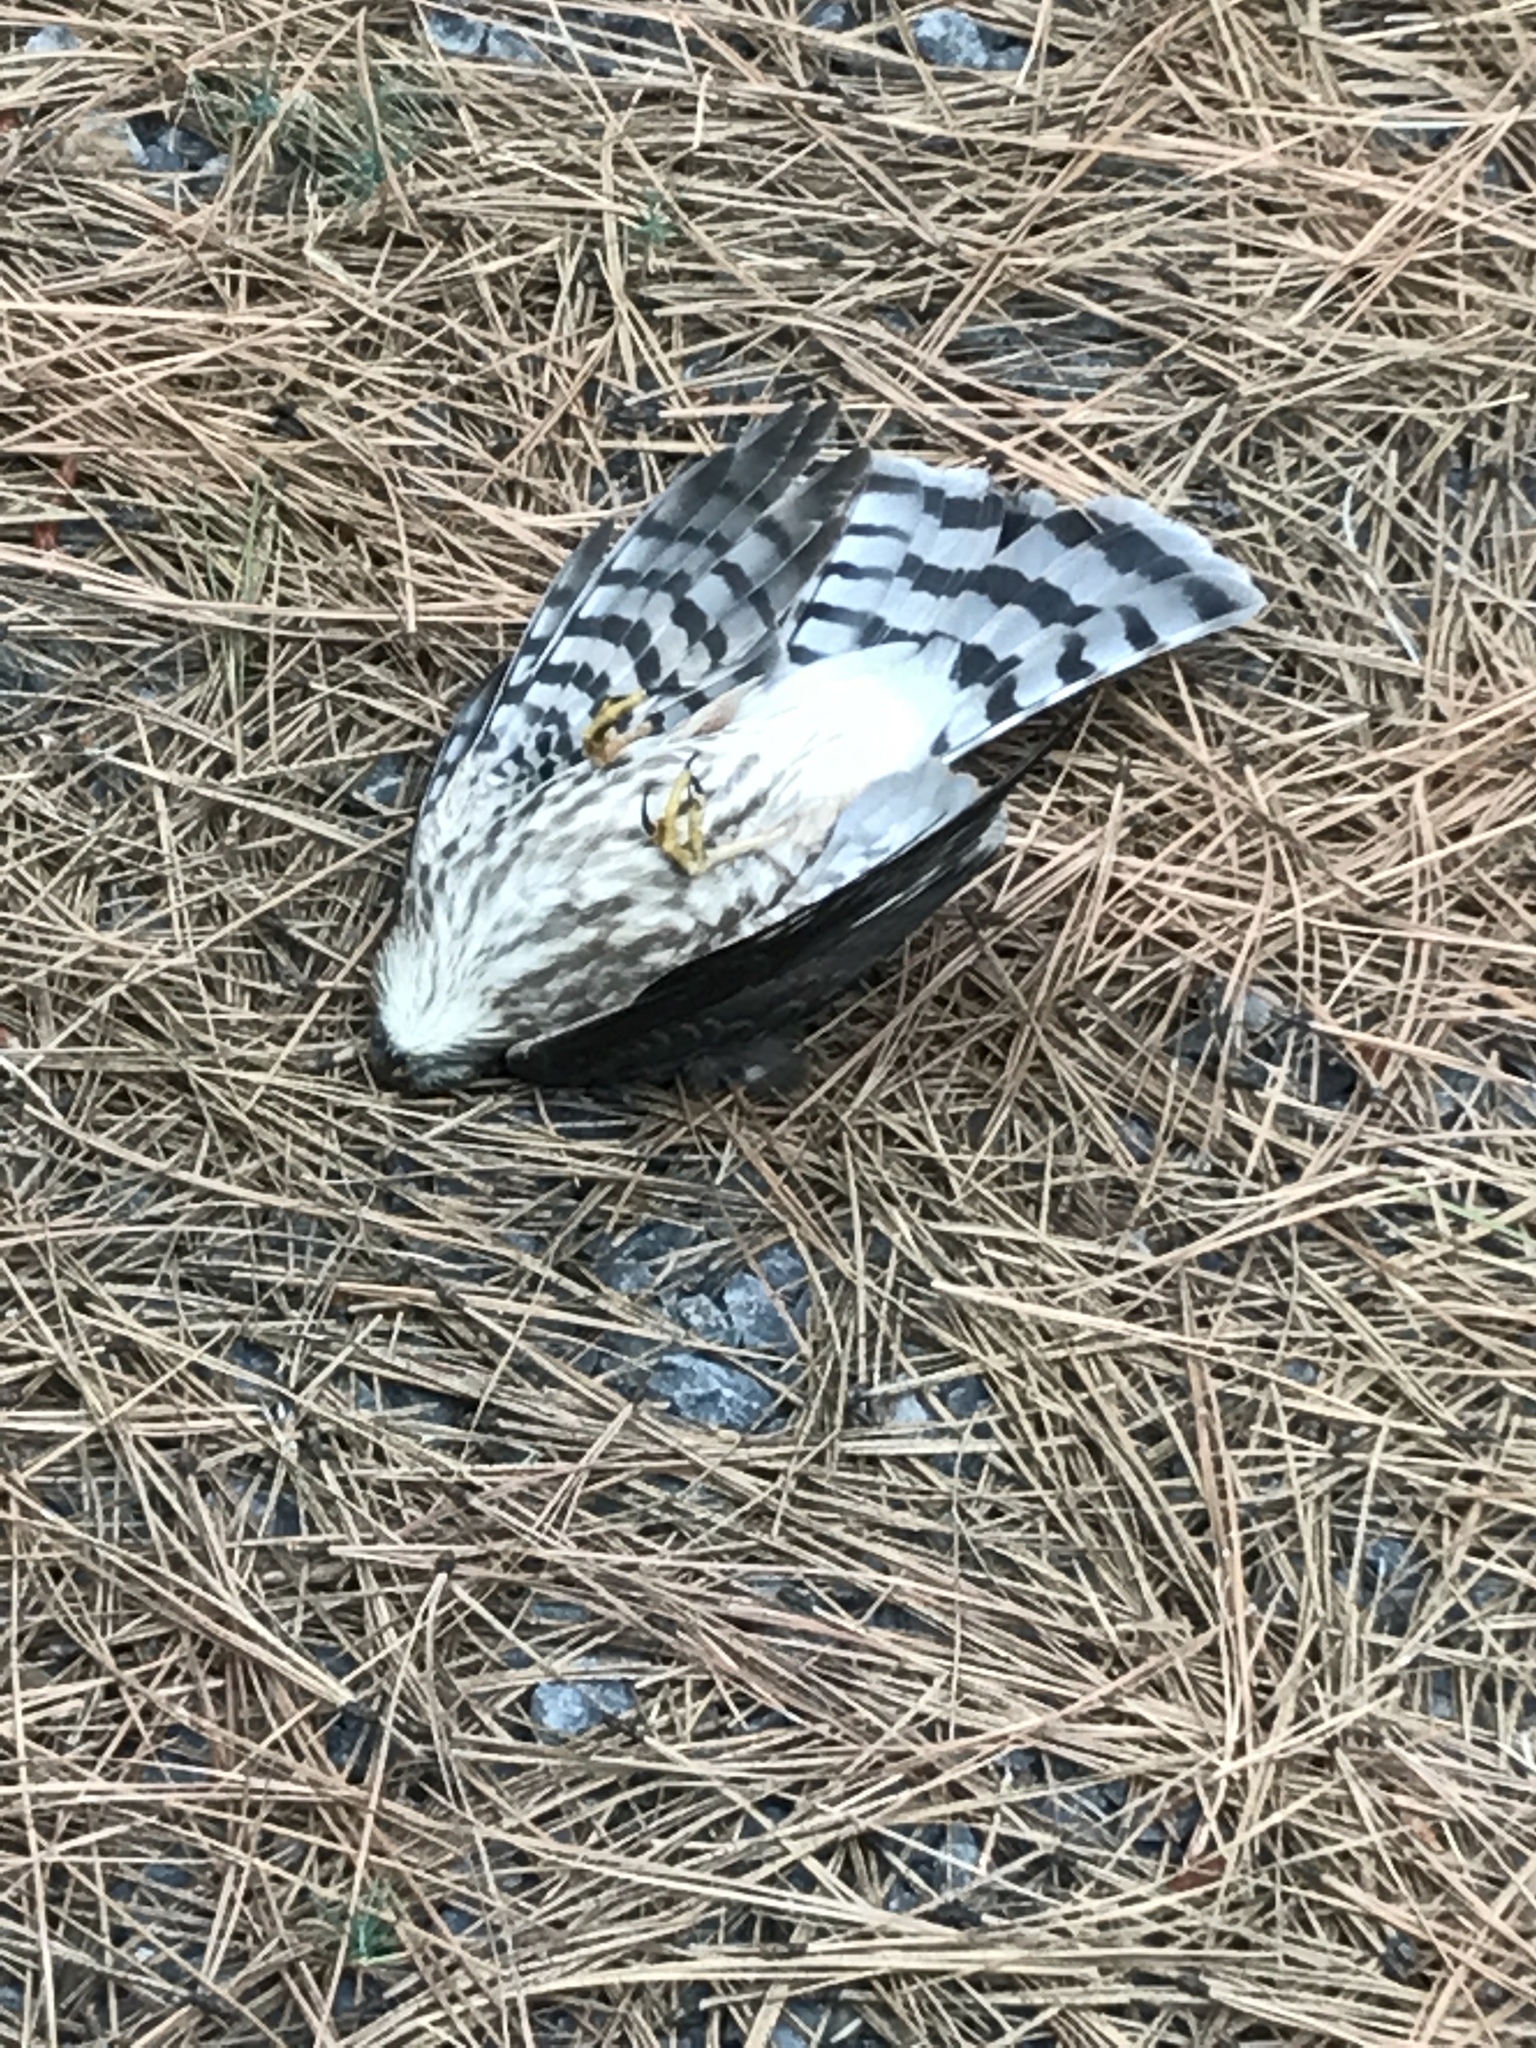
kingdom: Animalia
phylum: Chordata
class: Aves
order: Accipitriformes
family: Accipitridae
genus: Accipiter
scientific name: Accipiter striatus
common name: Sharp-shinned hawk
